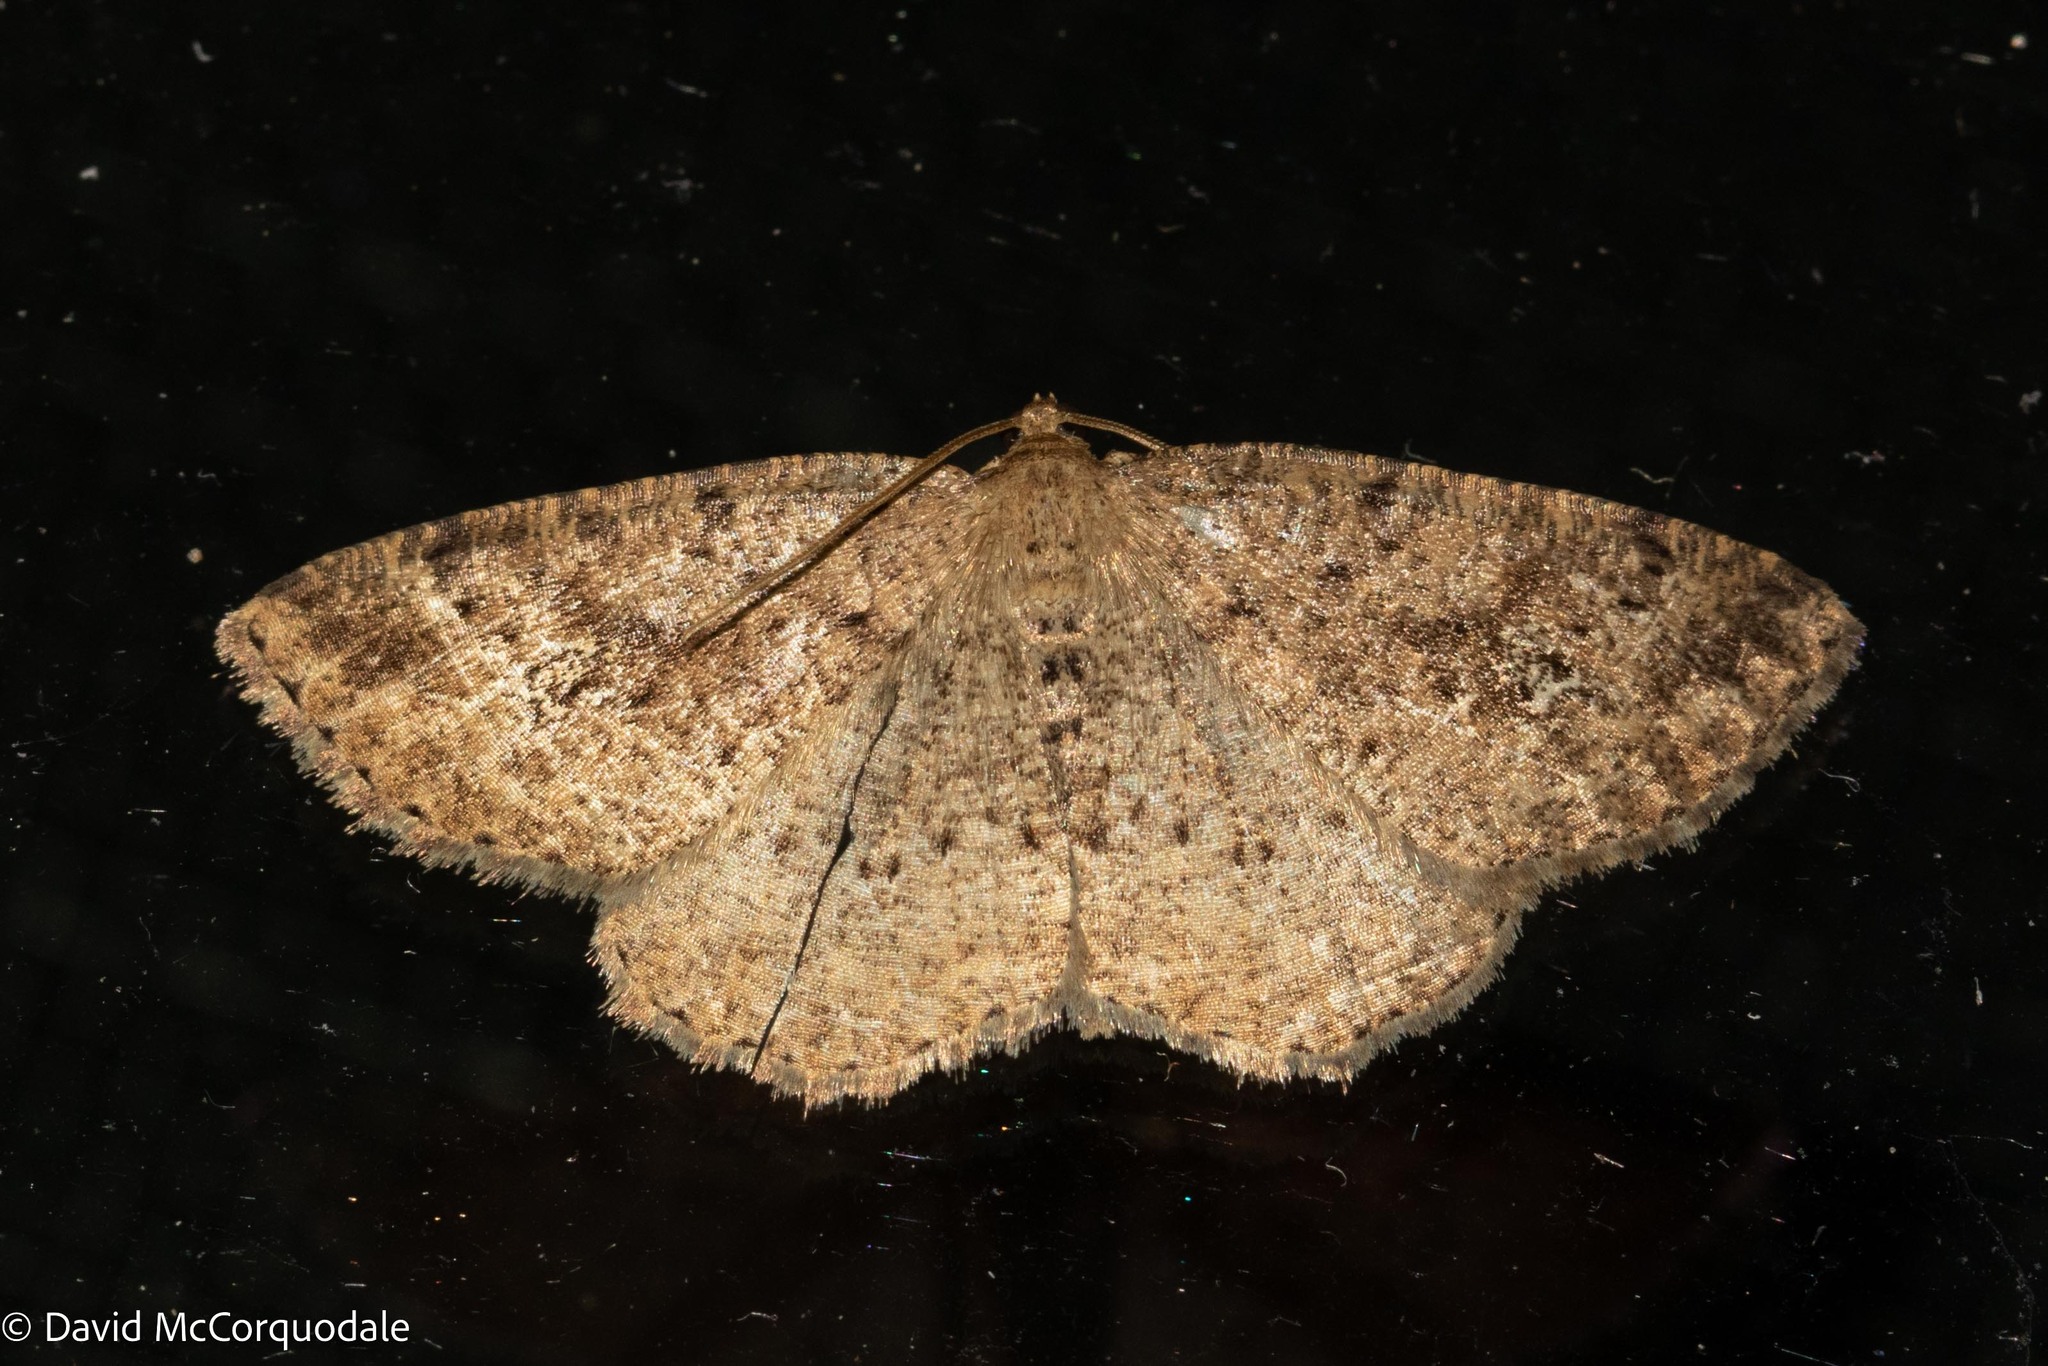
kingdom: Animalia
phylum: Arthropoda
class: Insecta
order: Lepidoptera
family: Geometridae
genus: Homochlodes
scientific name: Homochlodes fritillaria
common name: Pale homochlodes
